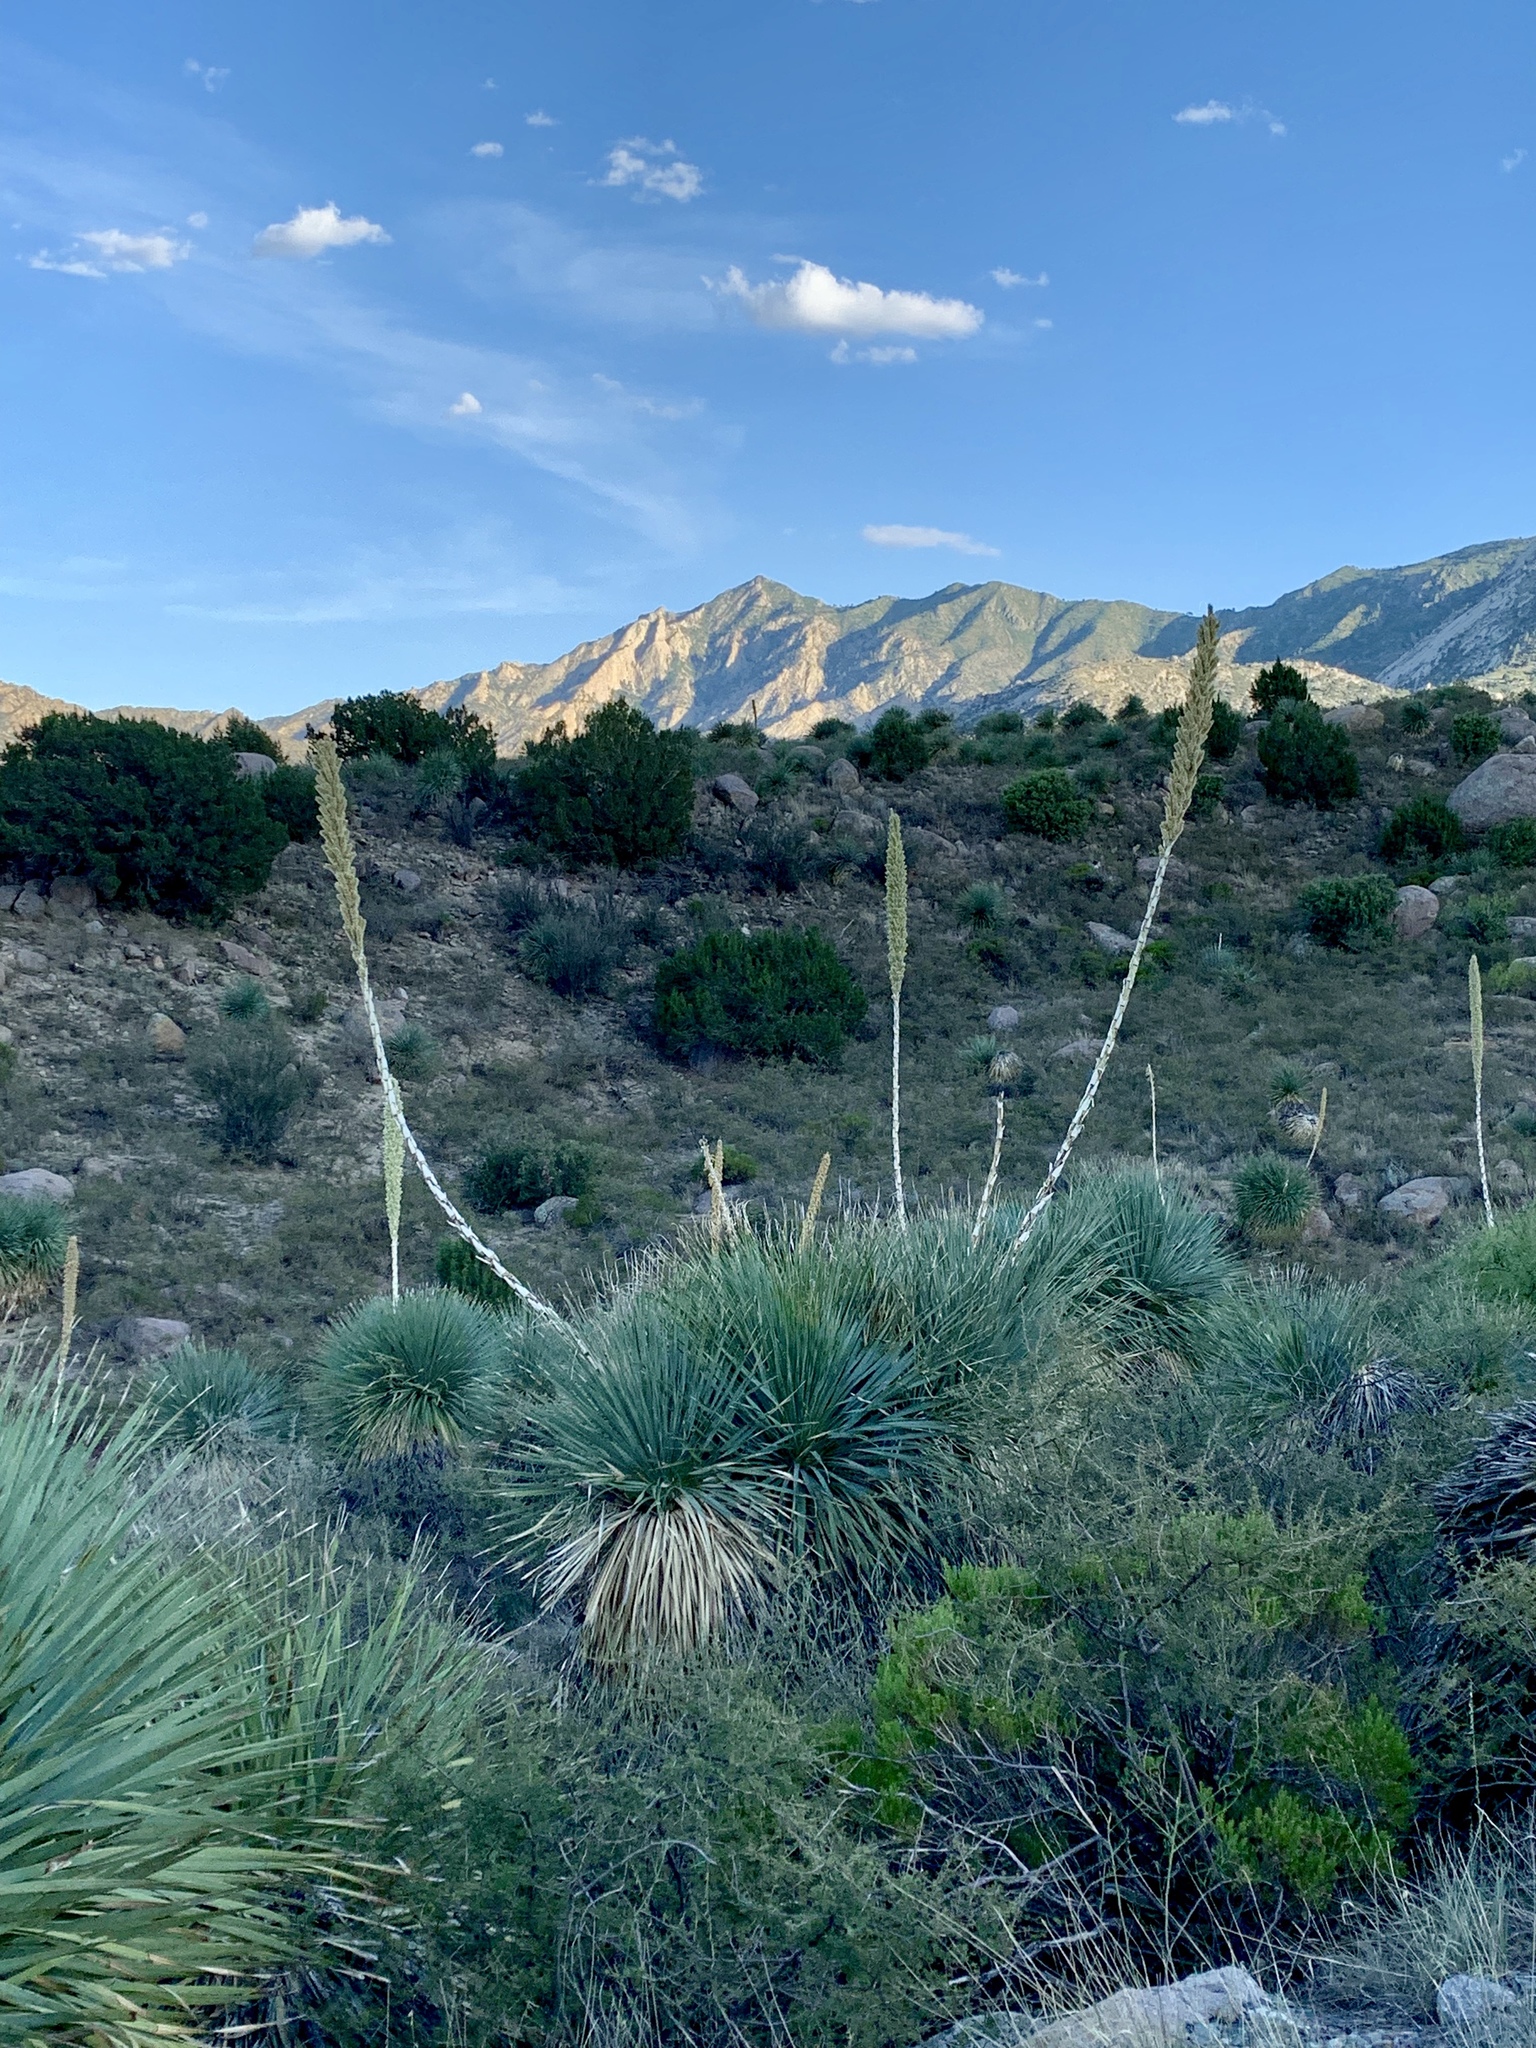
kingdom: Plantae
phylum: Tracheophyta
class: Liliopsida
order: Asparagales
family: Asparagaceae
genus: Dasylirion
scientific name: Dasylirion wheeleri
